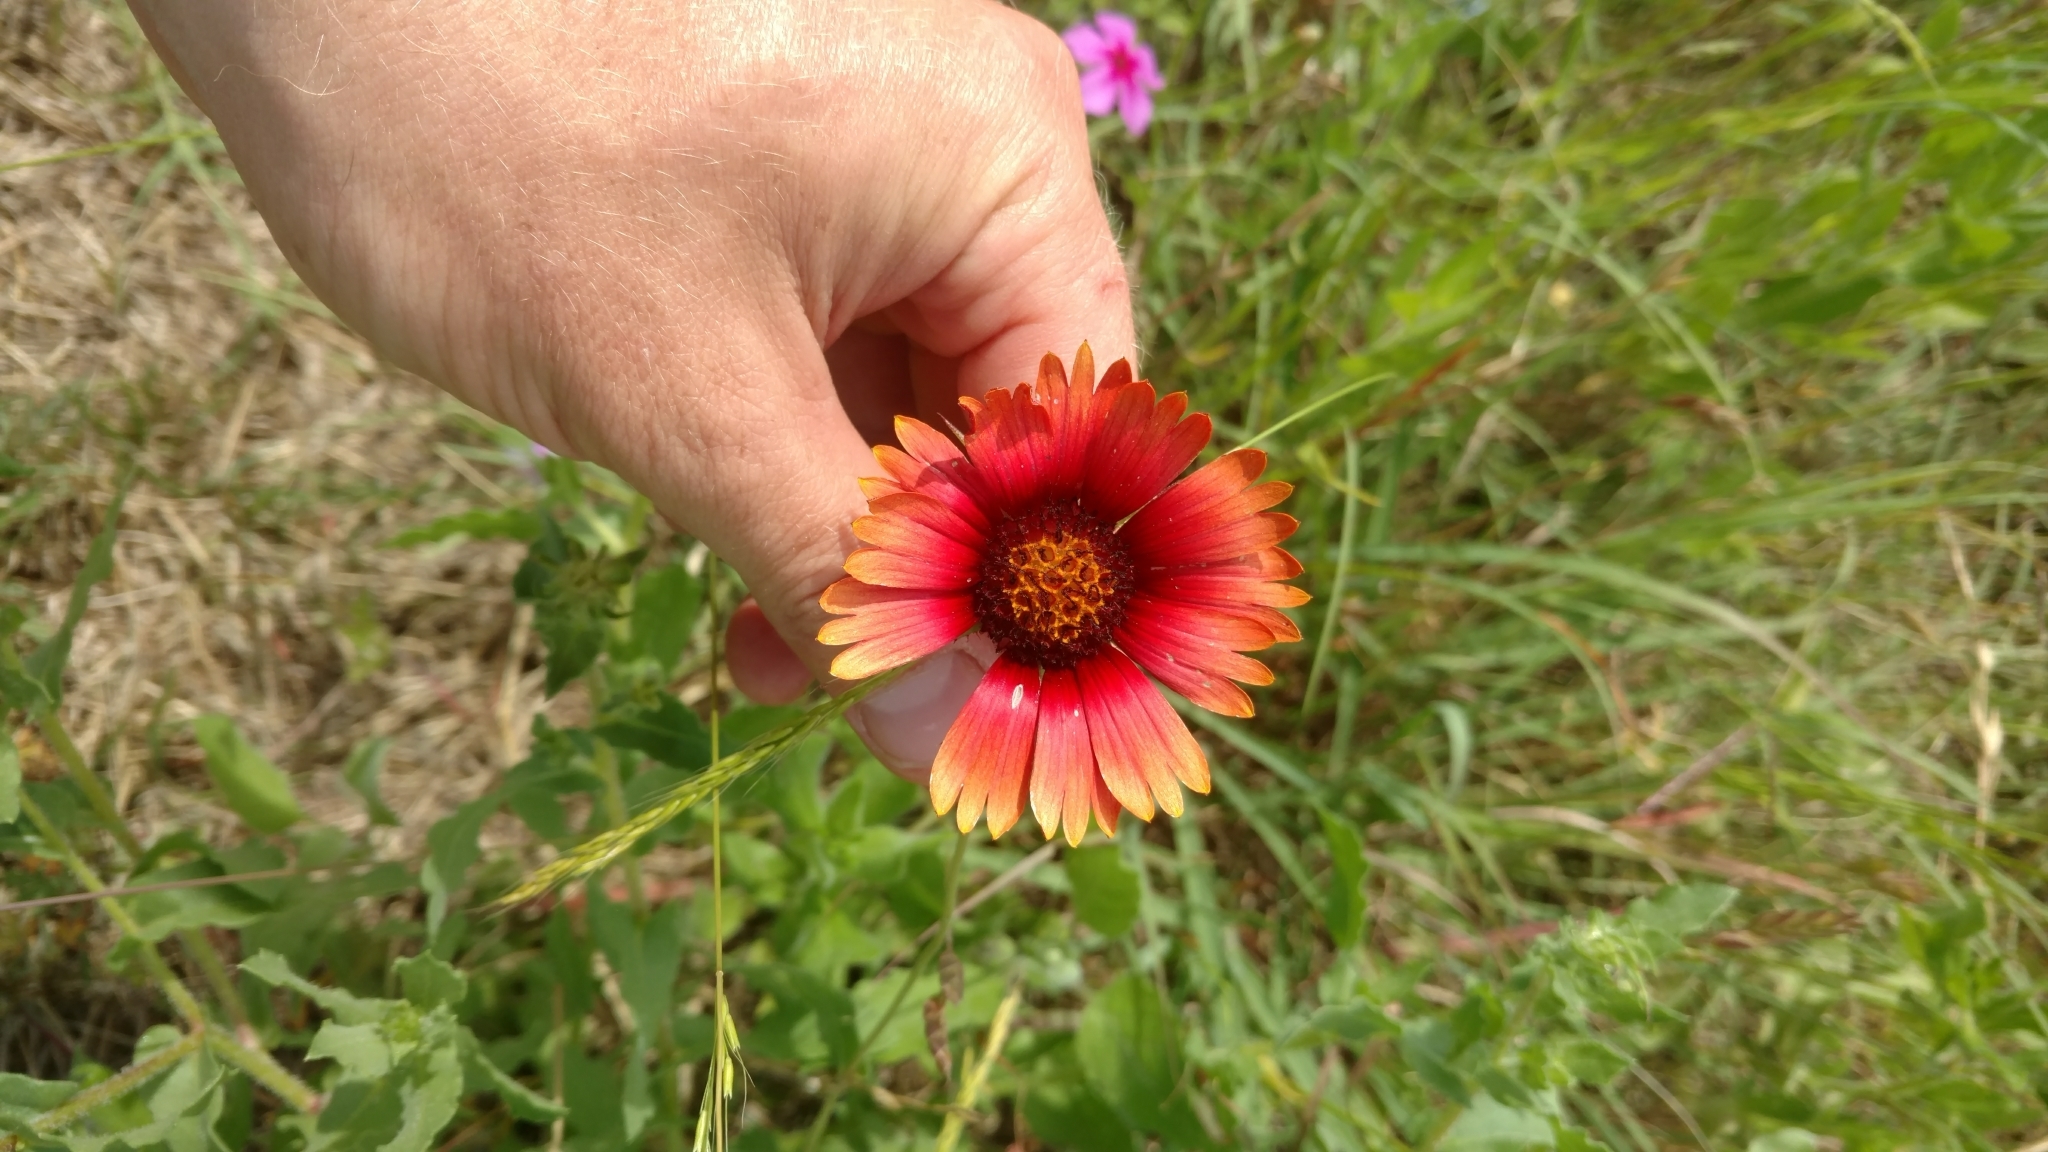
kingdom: Plantae
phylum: Tracheophyta
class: Magnoliopsida
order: Asterales
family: Asteraceae
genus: Gaillardia
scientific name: Gaillardia amblyodon
